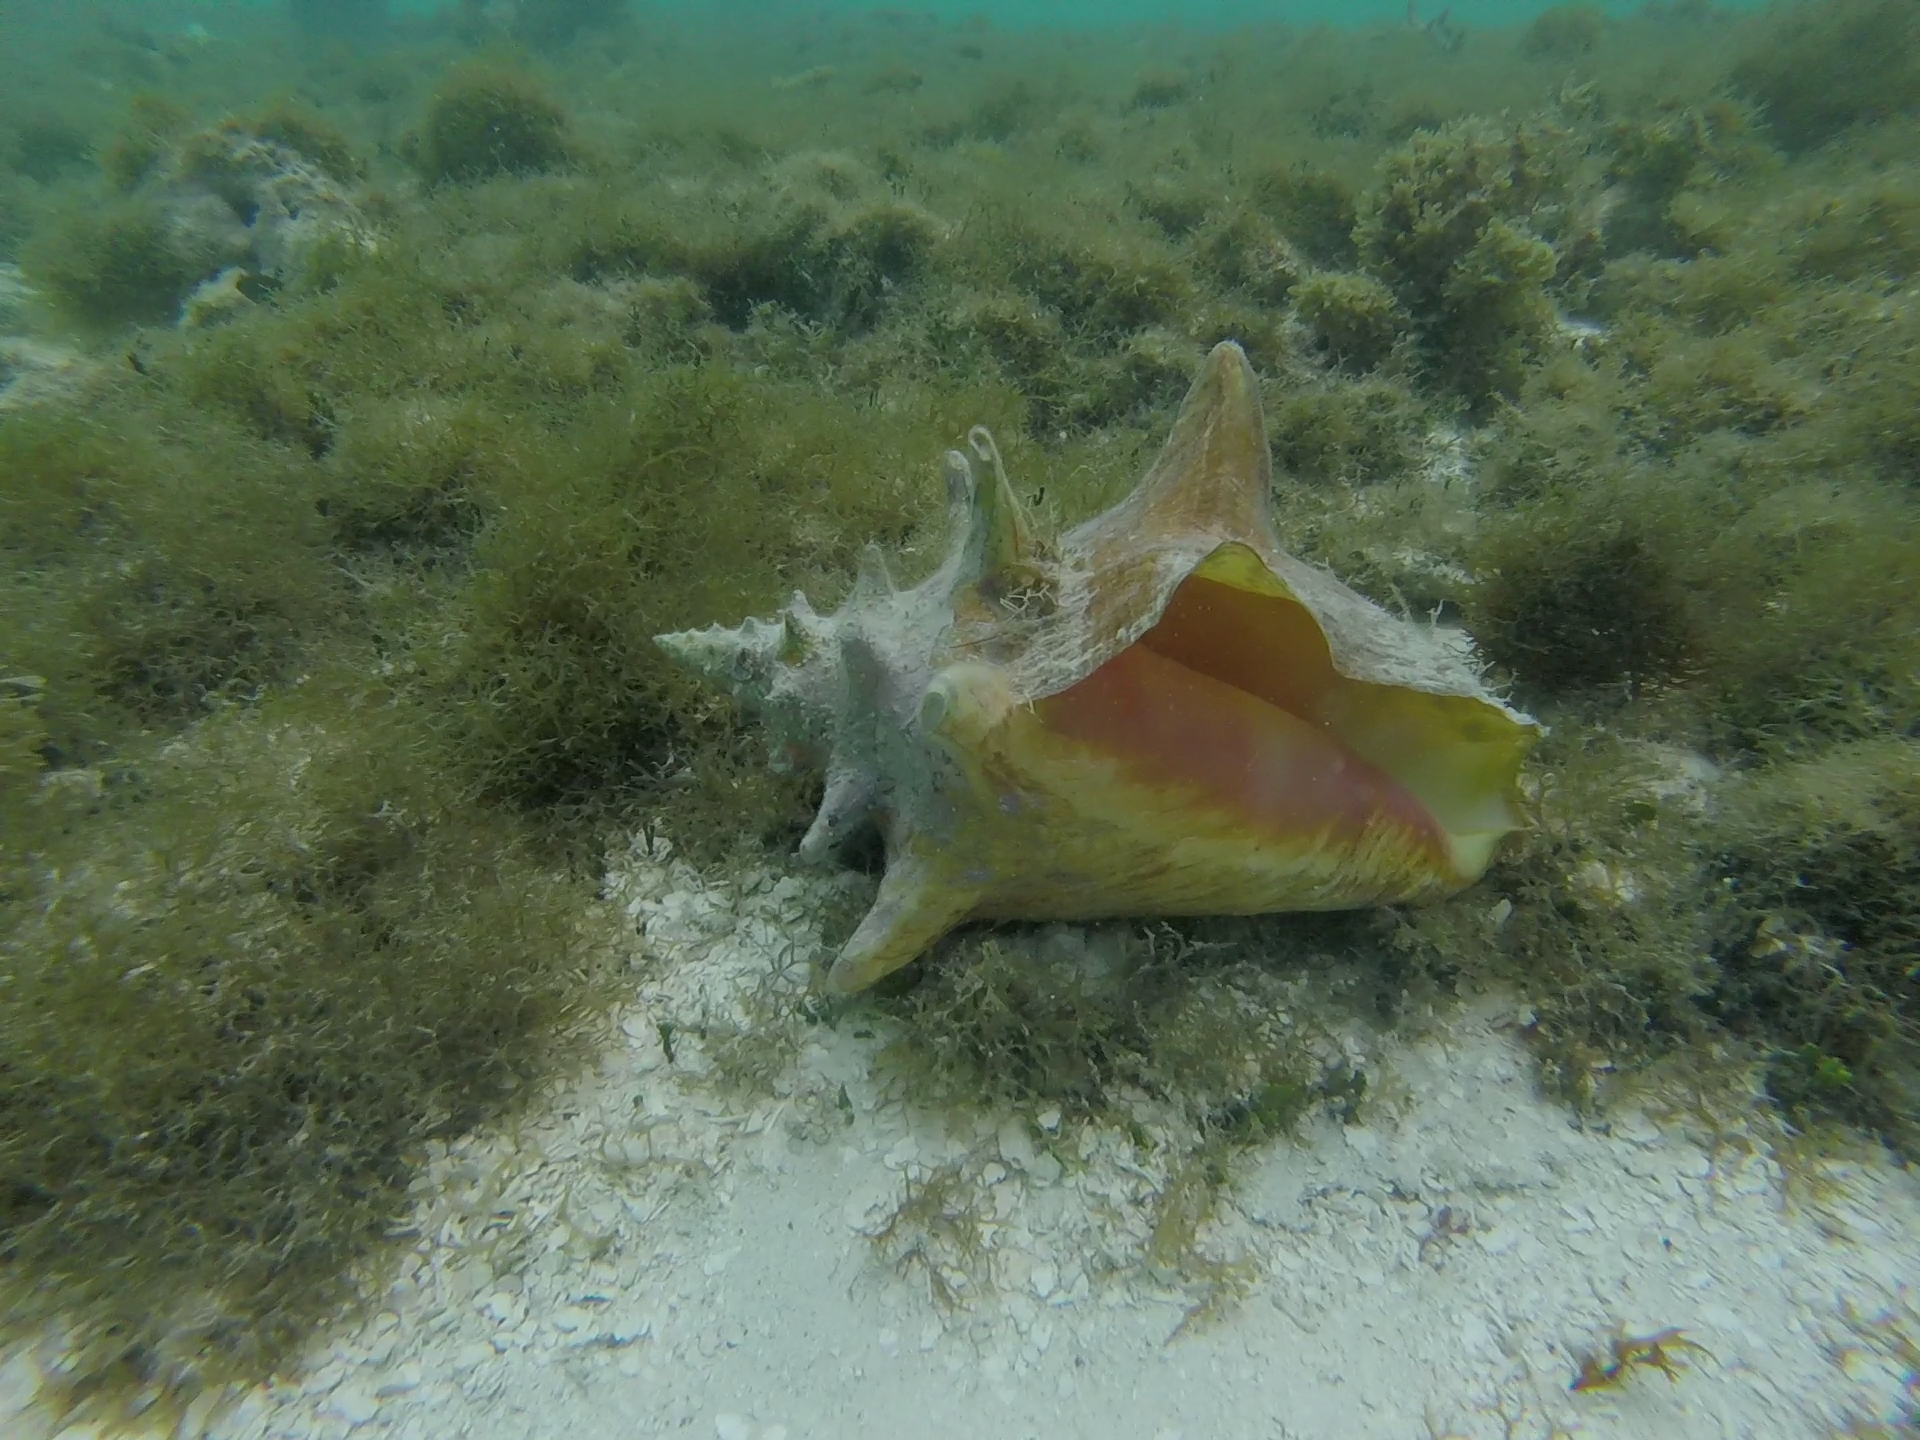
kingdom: Animalia
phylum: Mollusca
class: Gastropoda
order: Littorinimorpha
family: Strombidae
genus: Aliger
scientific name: Aliger gigas
